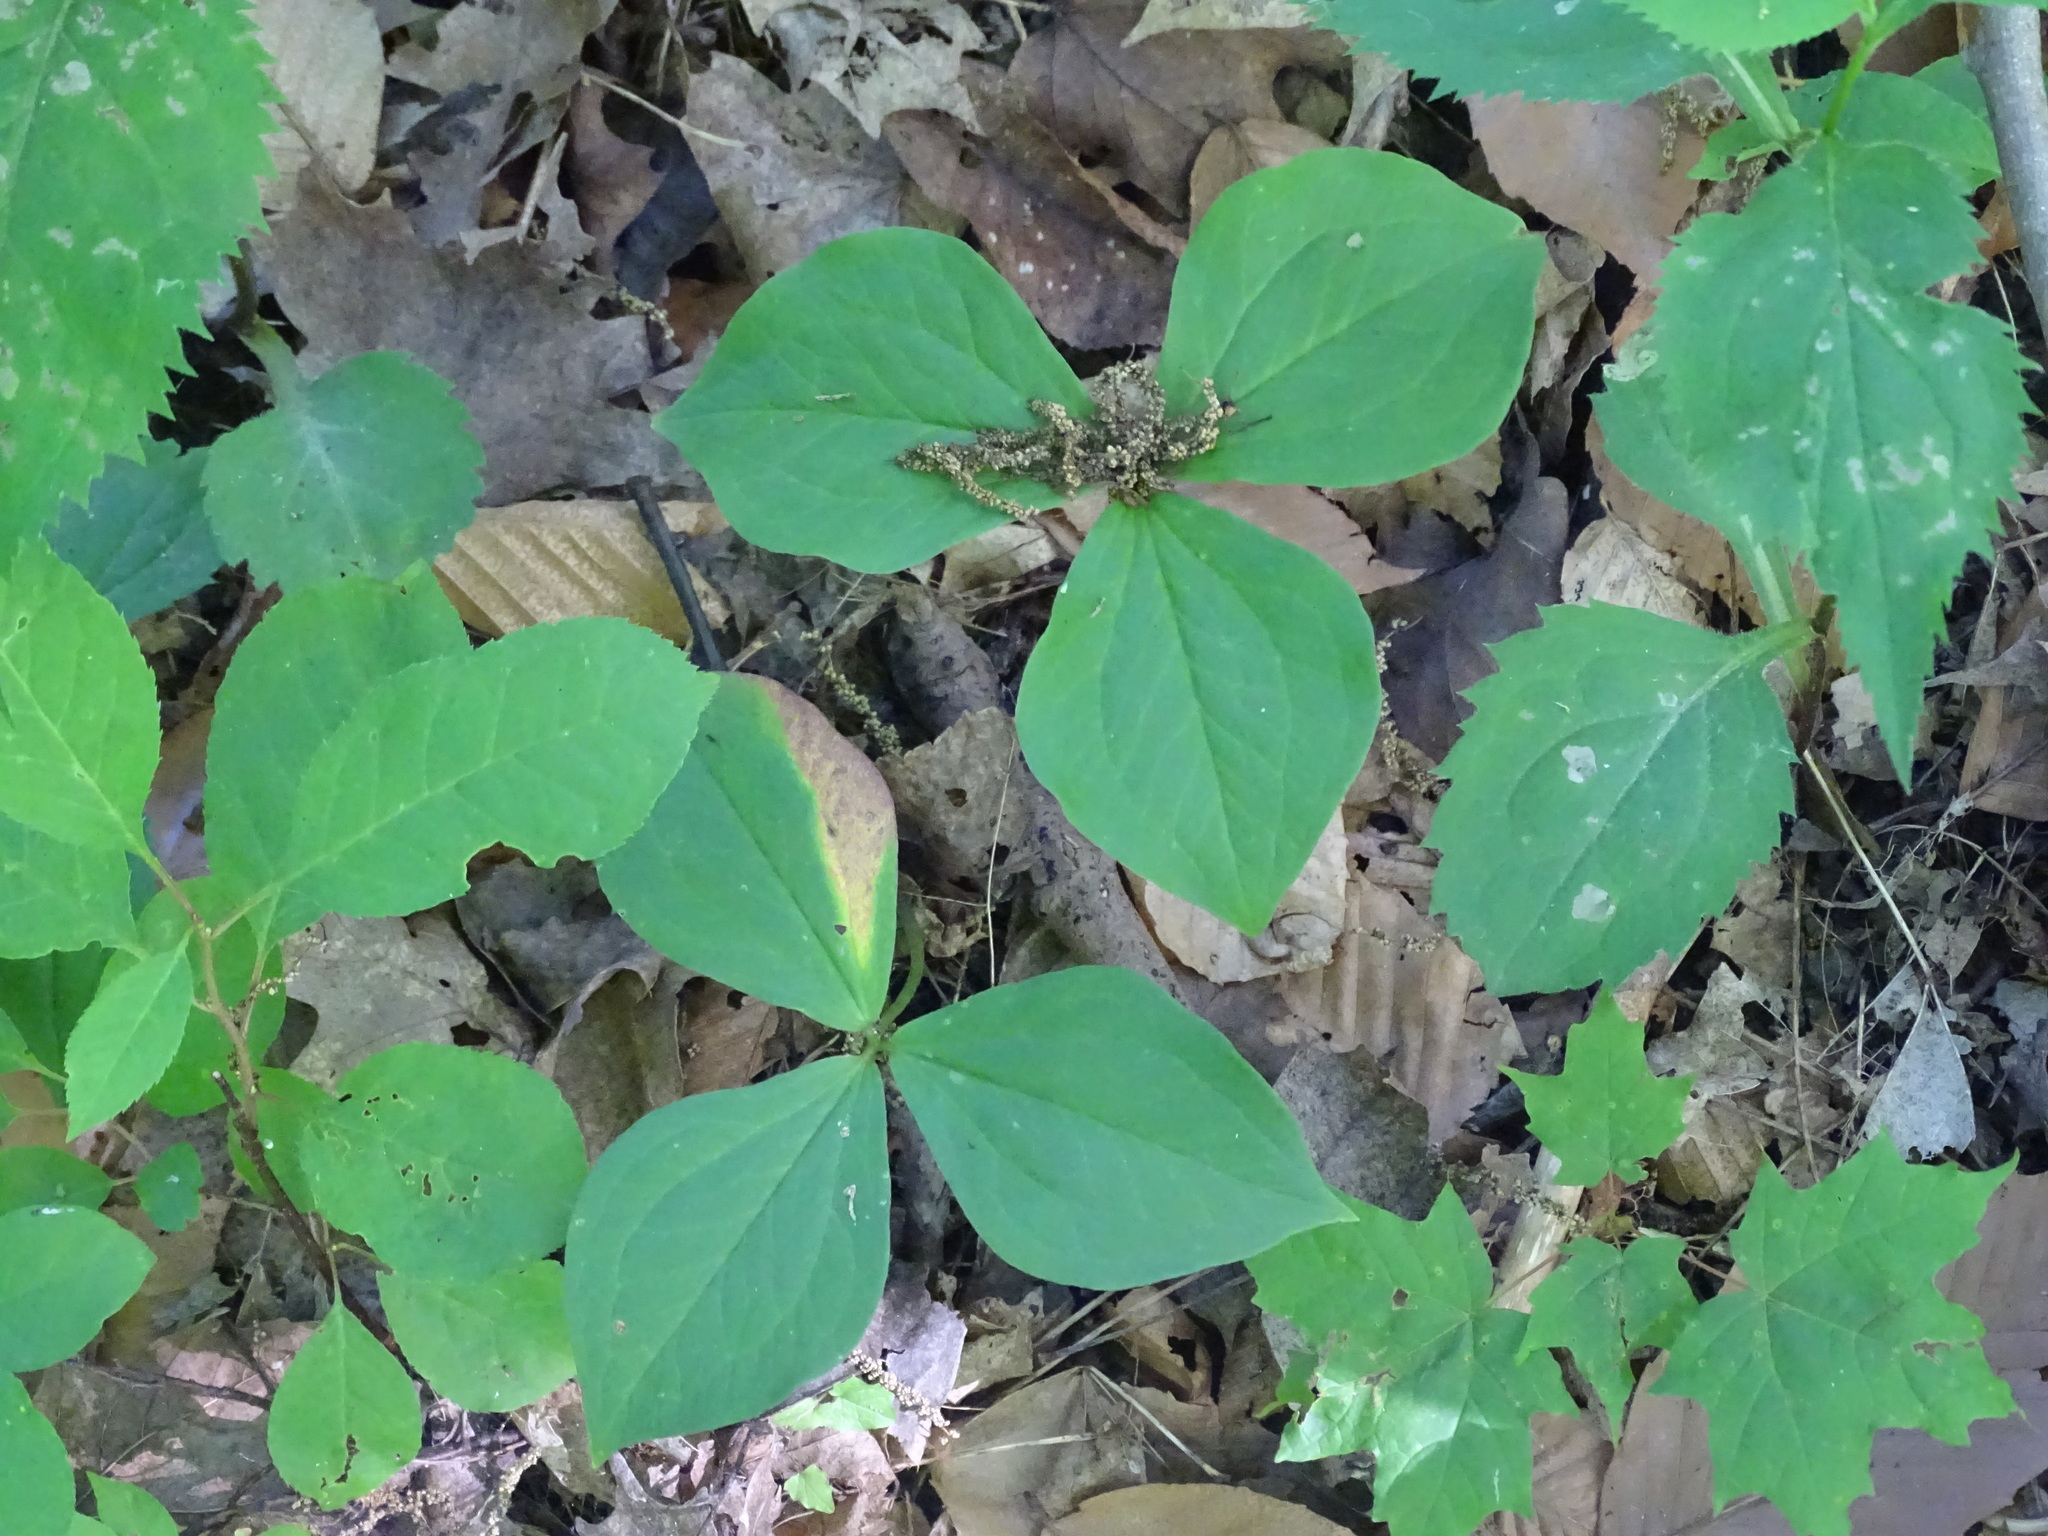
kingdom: Plantae
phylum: Tracheophyta
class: Liliopsida
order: Liliales
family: Melanthiaceae
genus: Trillium
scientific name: Trillium grandiflorum
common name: Great white trillium
